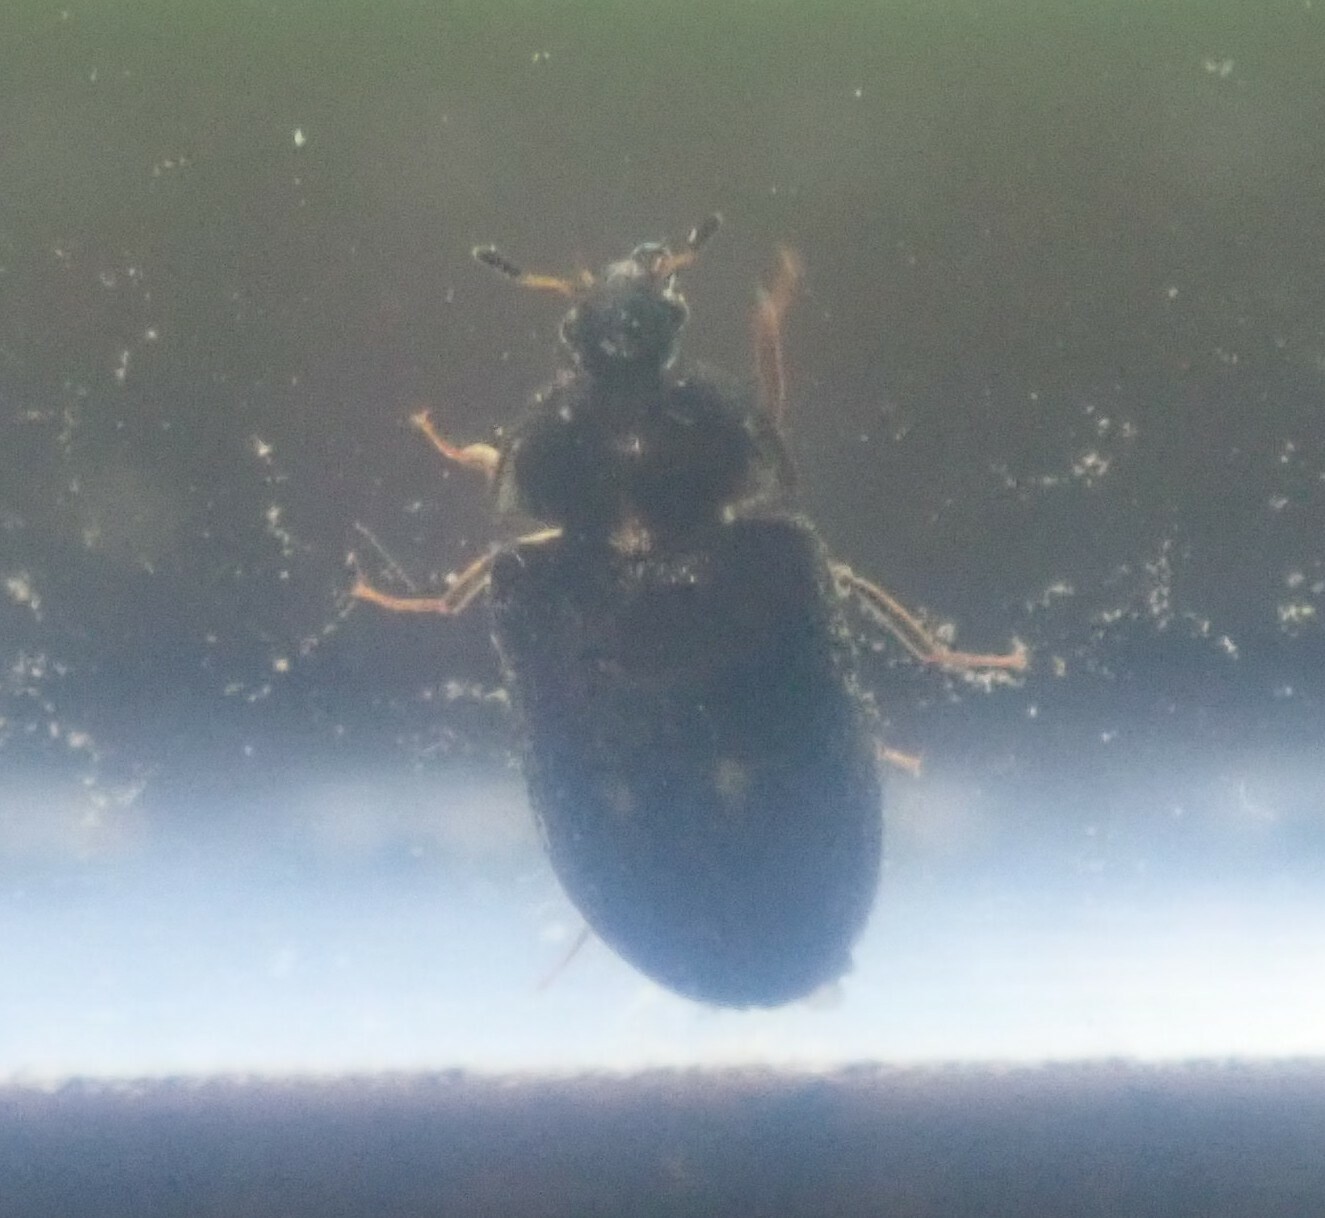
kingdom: Animalia
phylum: Arthropoda
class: Insecta
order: Coleoptera
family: Dermestidae
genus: Attagenus
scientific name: Attagenus pellio
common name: Two-spotted carpet beetle
